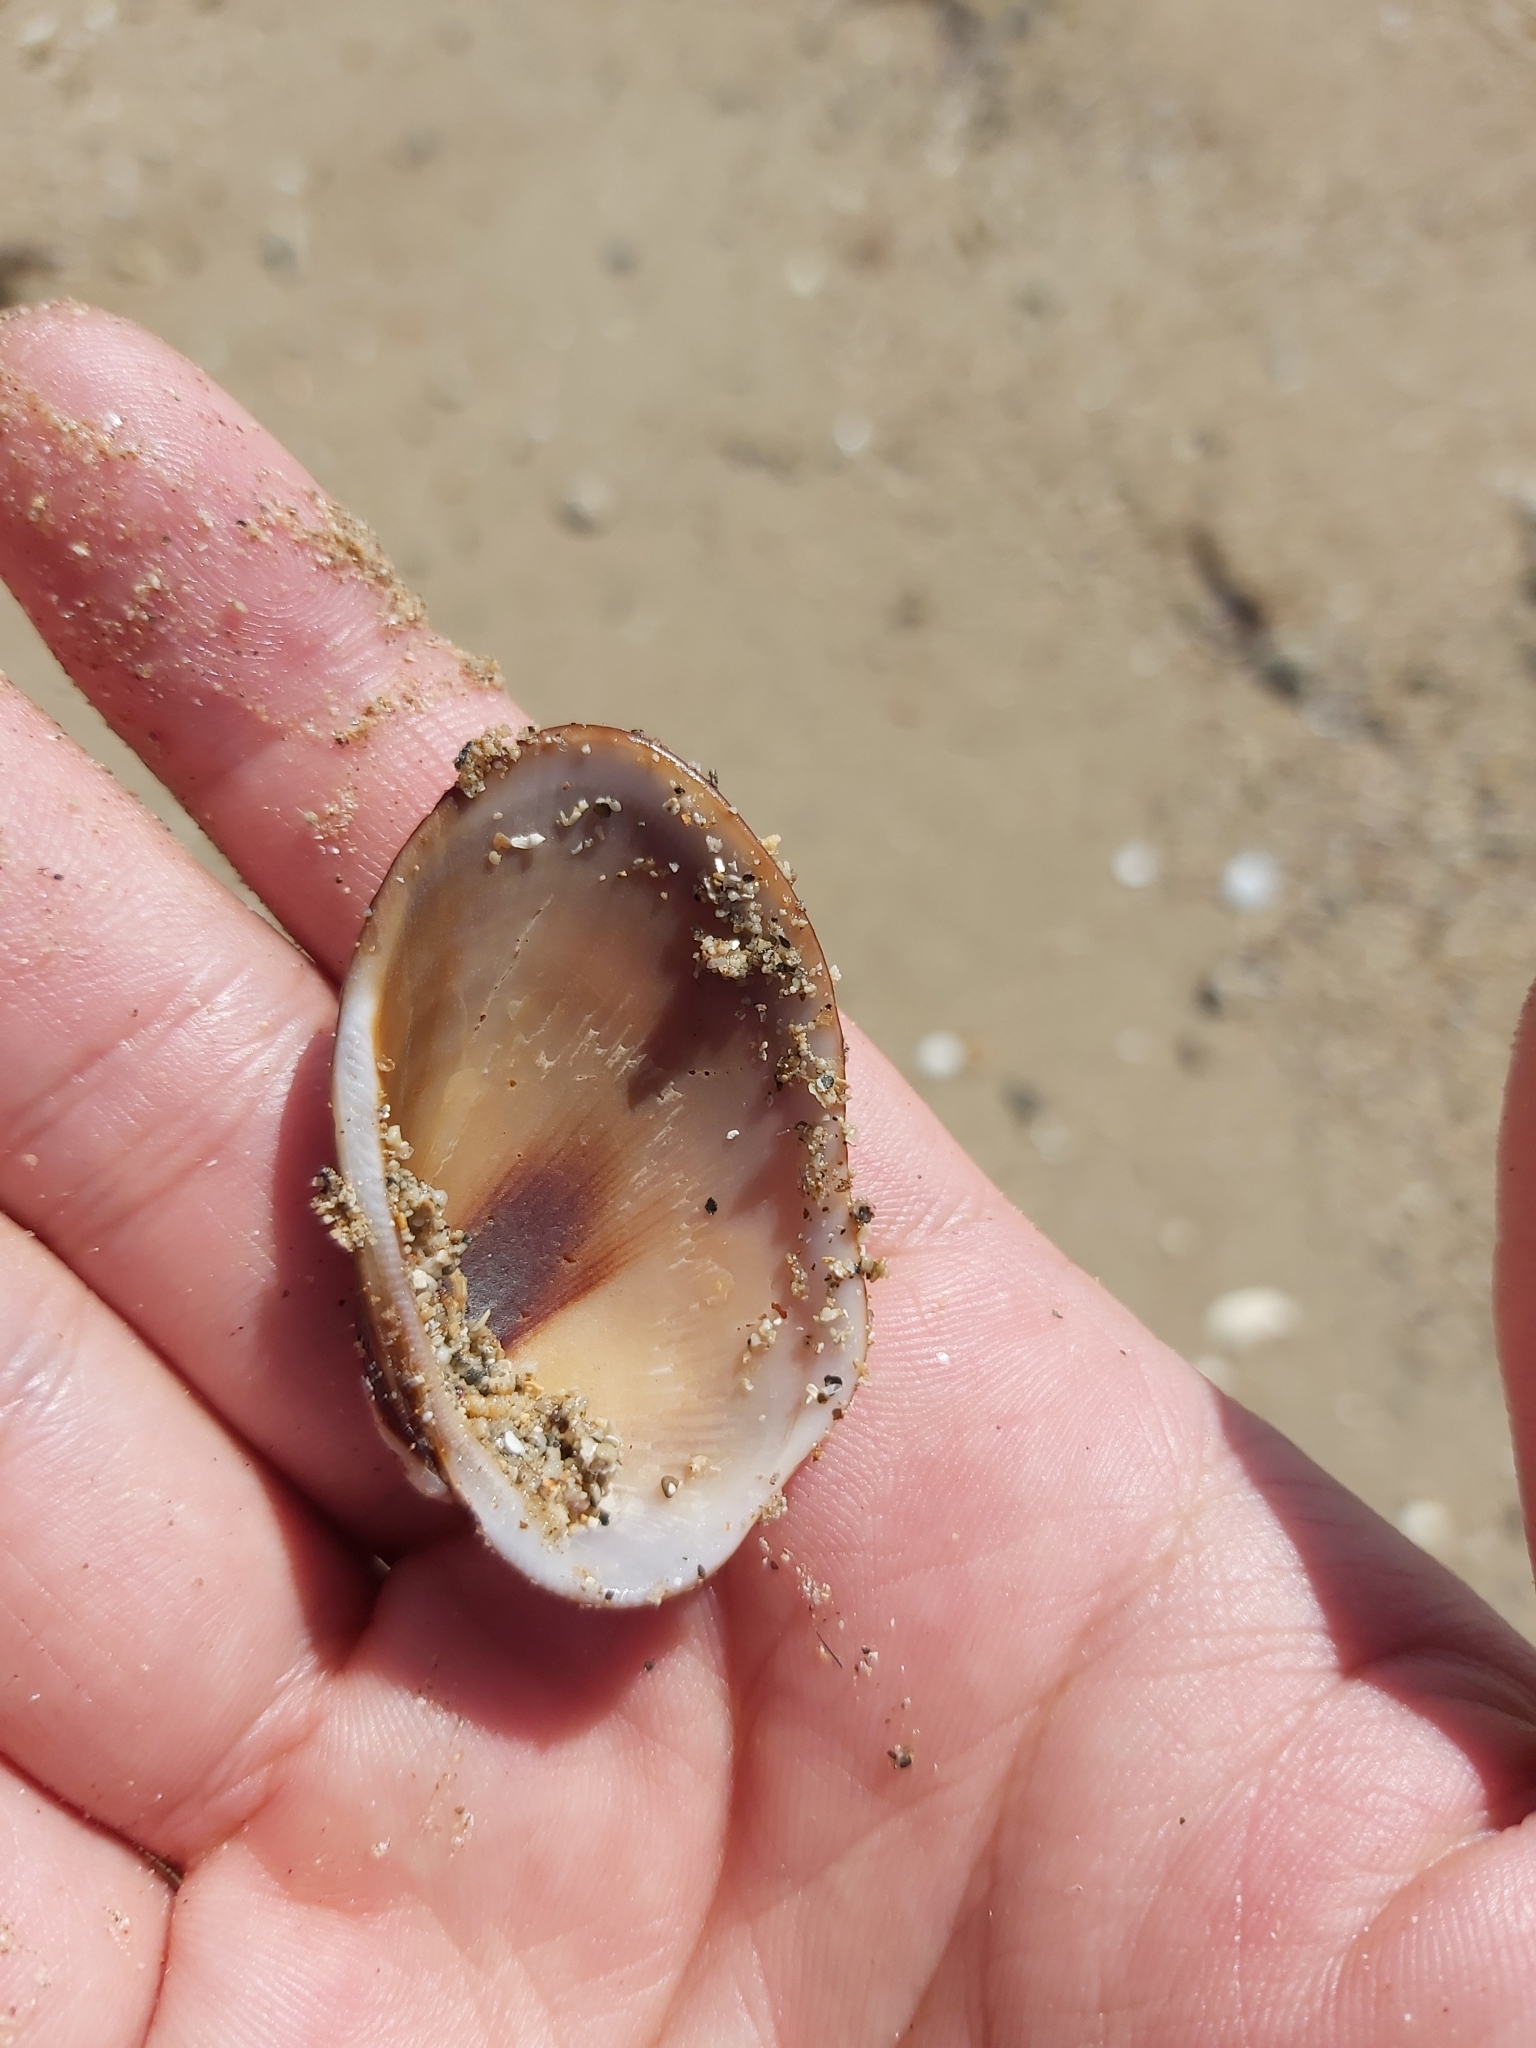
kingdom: Animalia
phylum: Mollusca
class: Bivalvia
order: Arcida
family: Arcidae
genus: Barbatia
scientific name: Barbatia amygdalumtostum
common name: Burnt-almond ark
